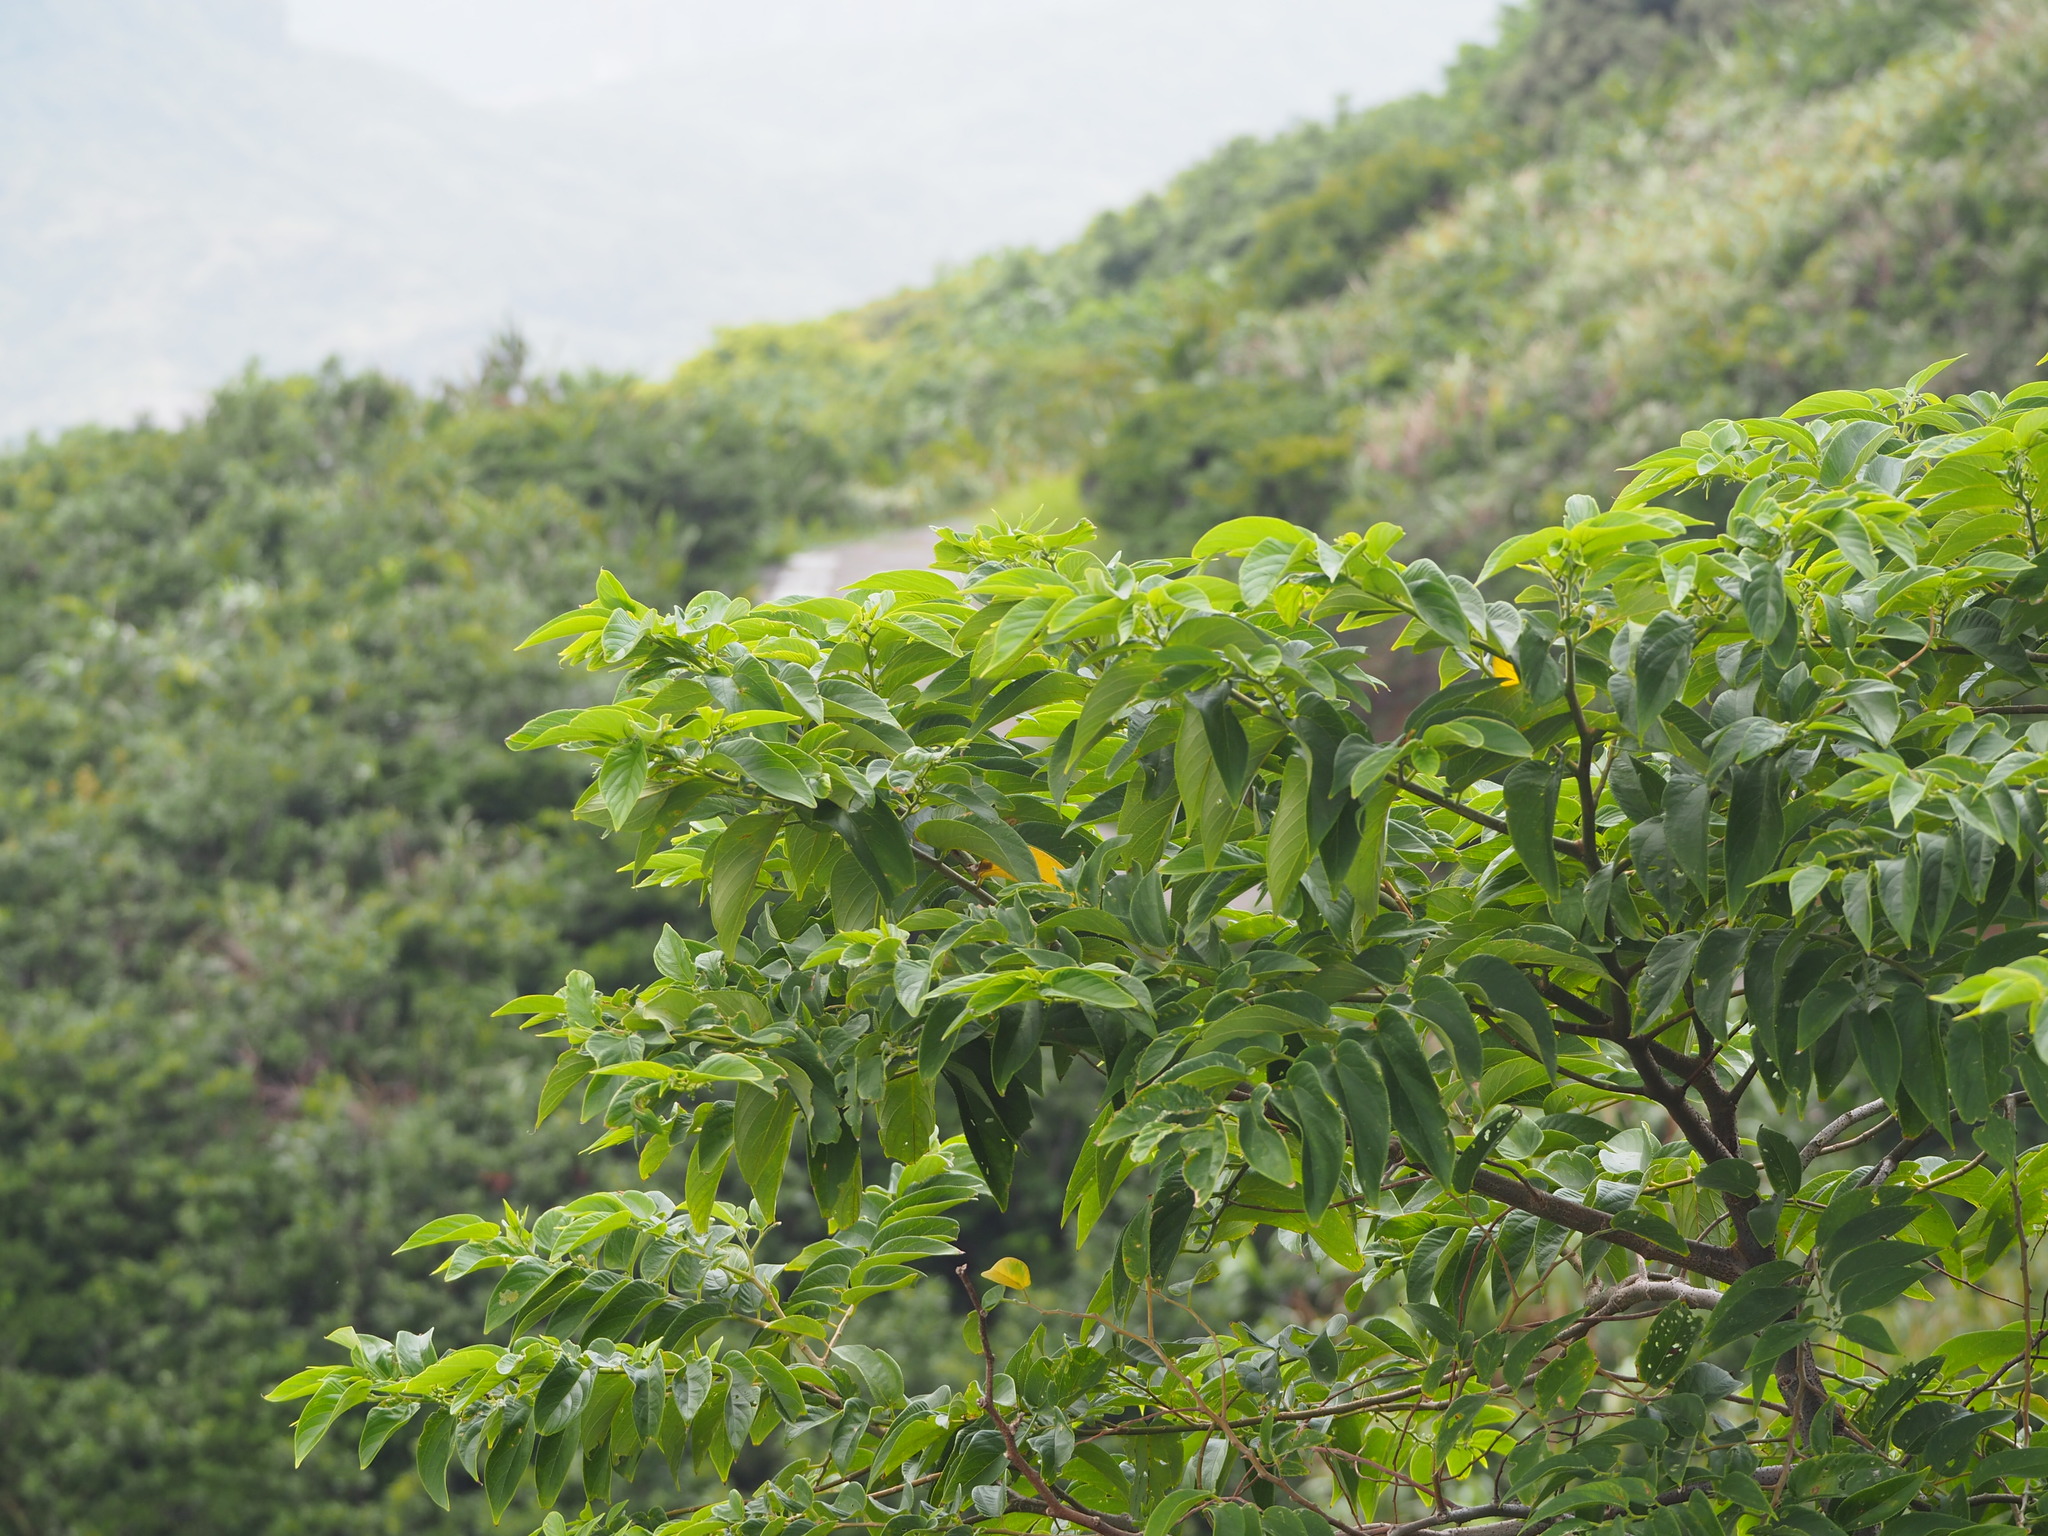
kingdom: Plantae
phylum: Tracheophyta
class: Magnoliopsida
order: Rosales
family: Cannabaceae
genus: Trema
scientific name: Trema orientale
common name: Indian charcoal tree
